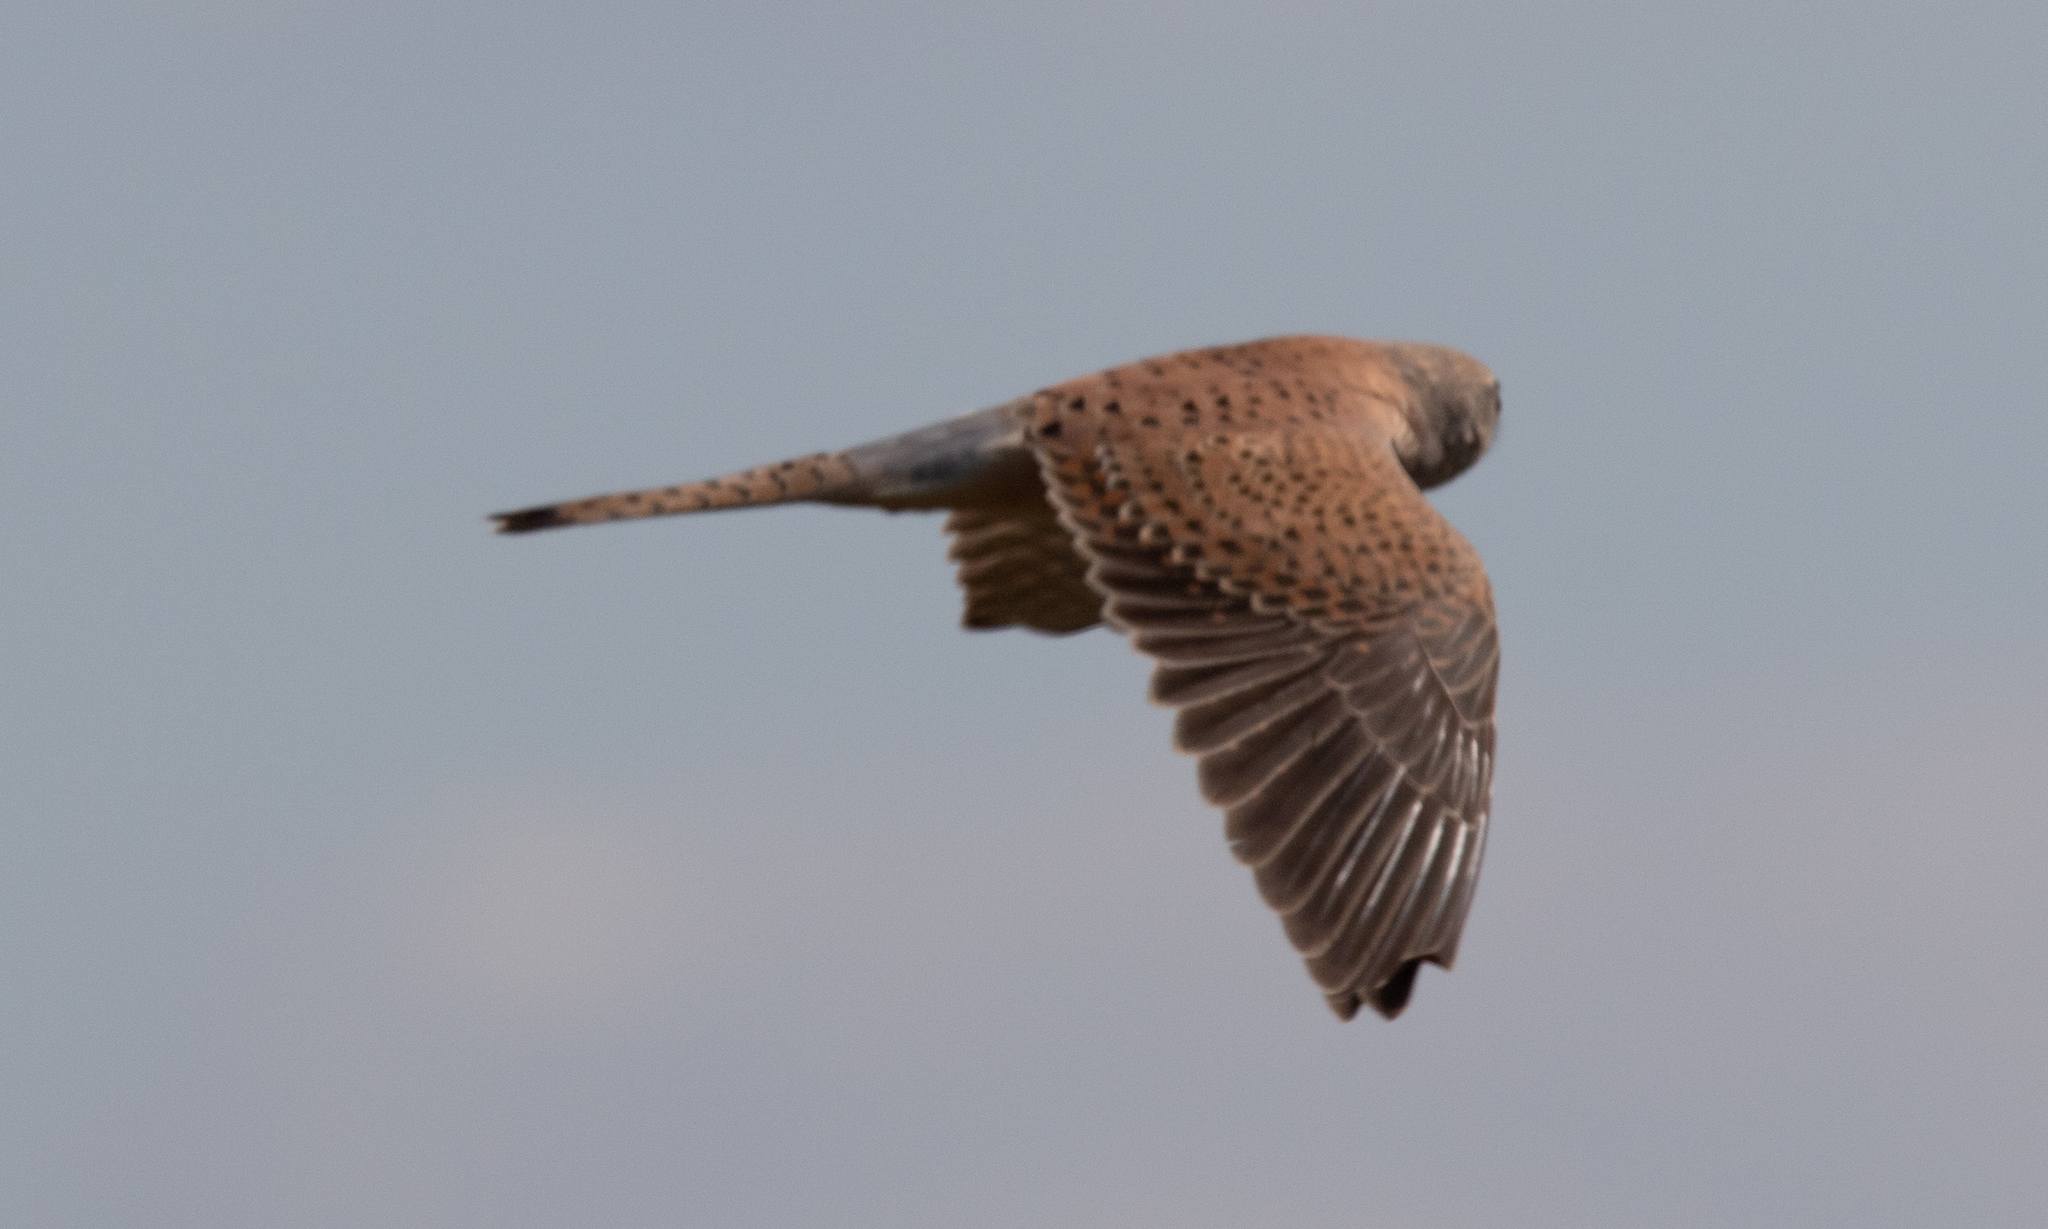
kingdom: Animalia
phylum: Chordata
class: Aves
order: Falconiformes
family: Falconidae
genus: Falco
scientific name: Falco tinnunculus
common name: Common kestrel
